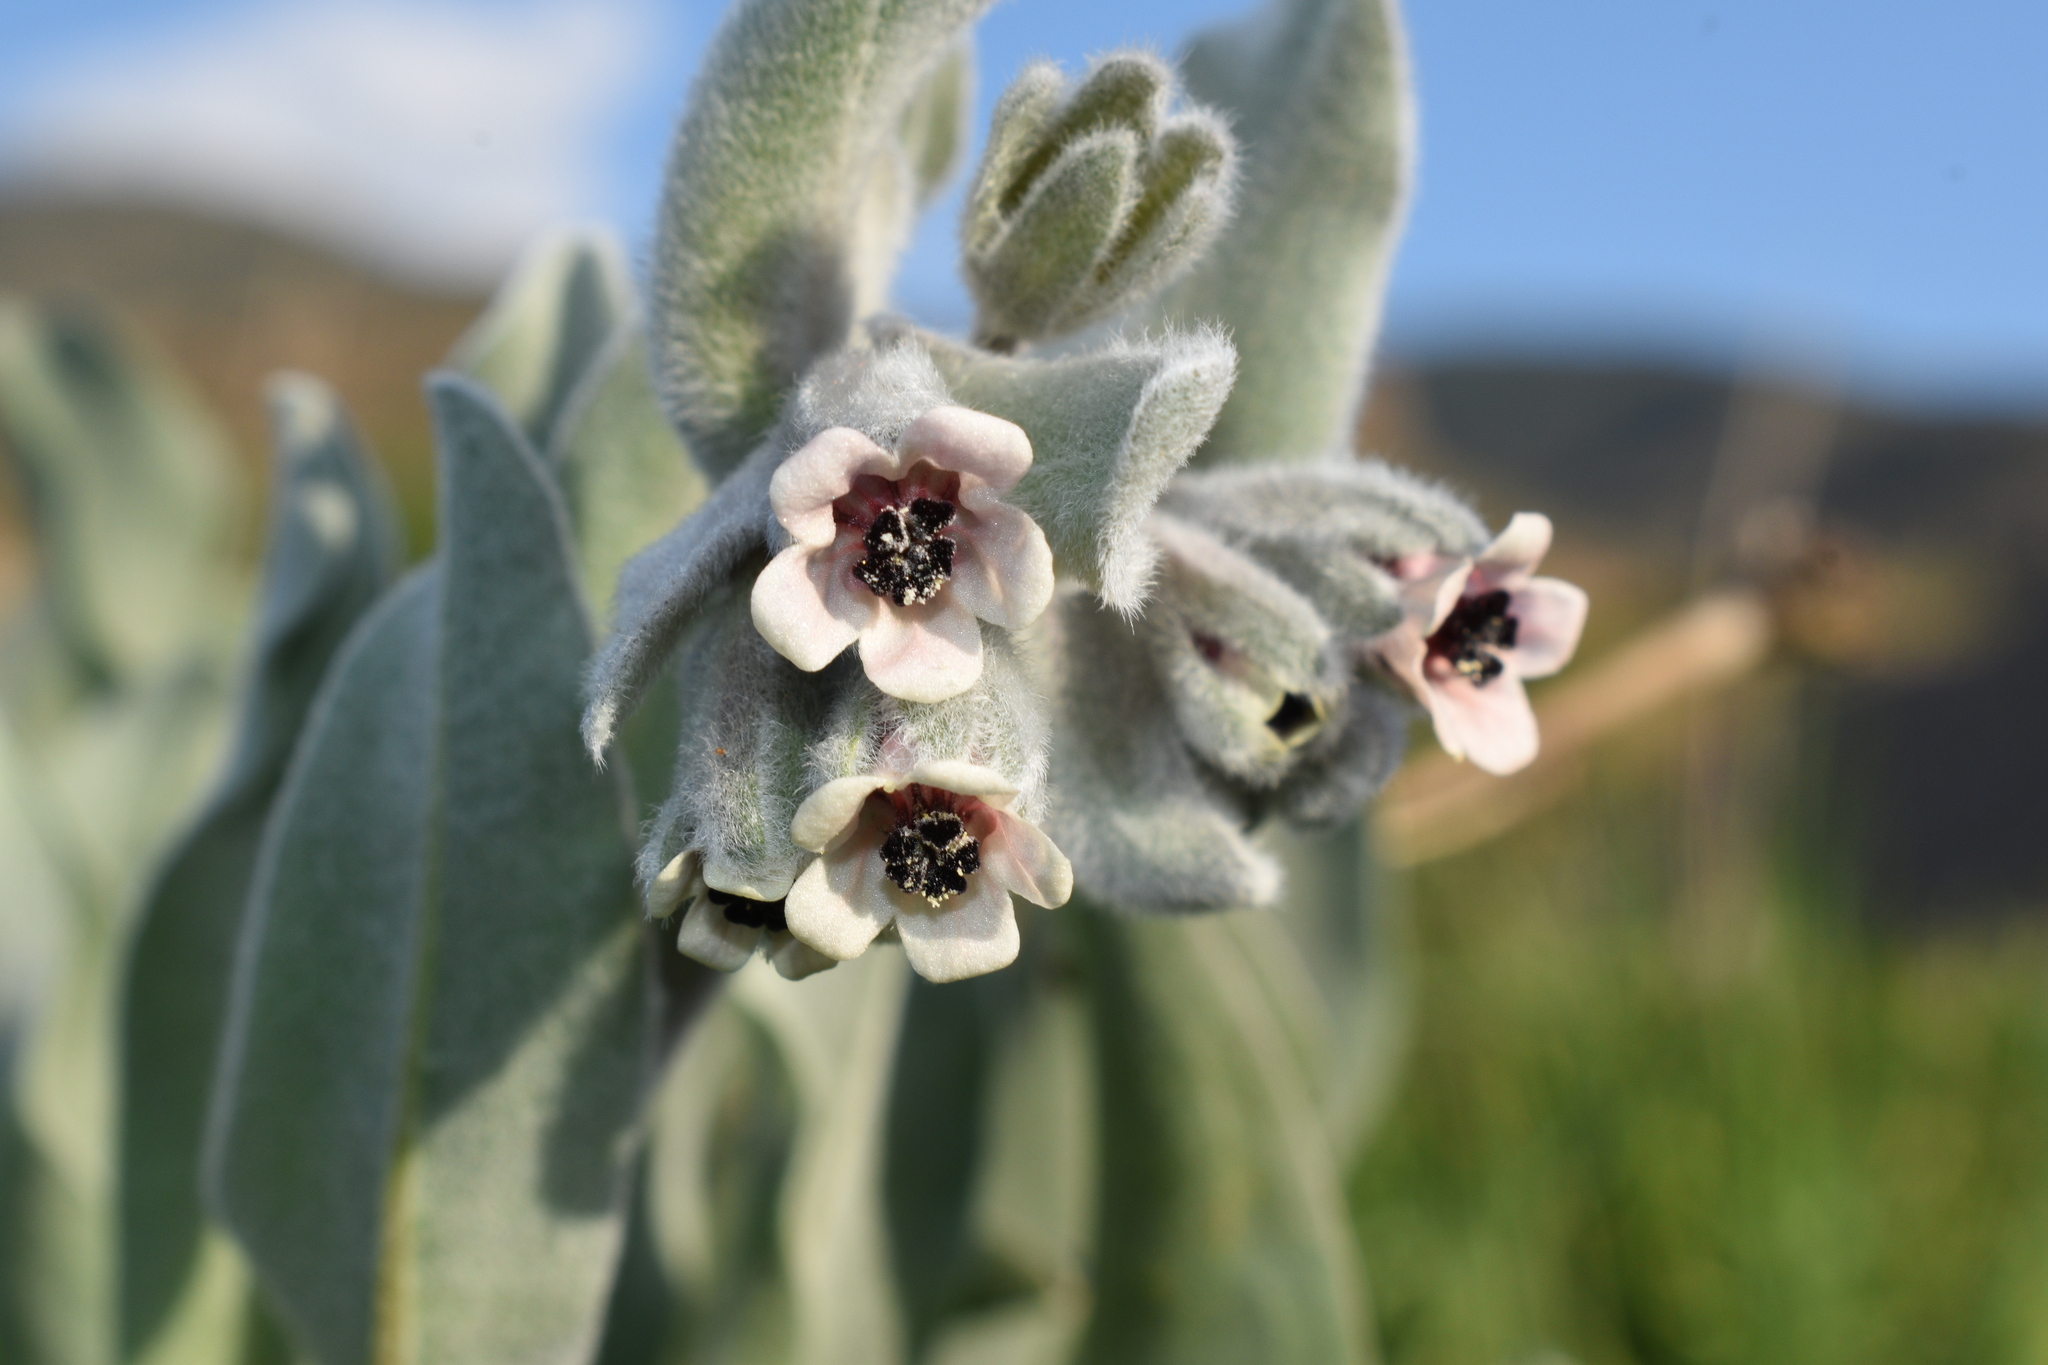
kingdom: Plantae
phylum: Tracheophyta
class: Magnoliopsida
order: Boraginales
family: Boraginaceae
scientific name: Boraginaceae
